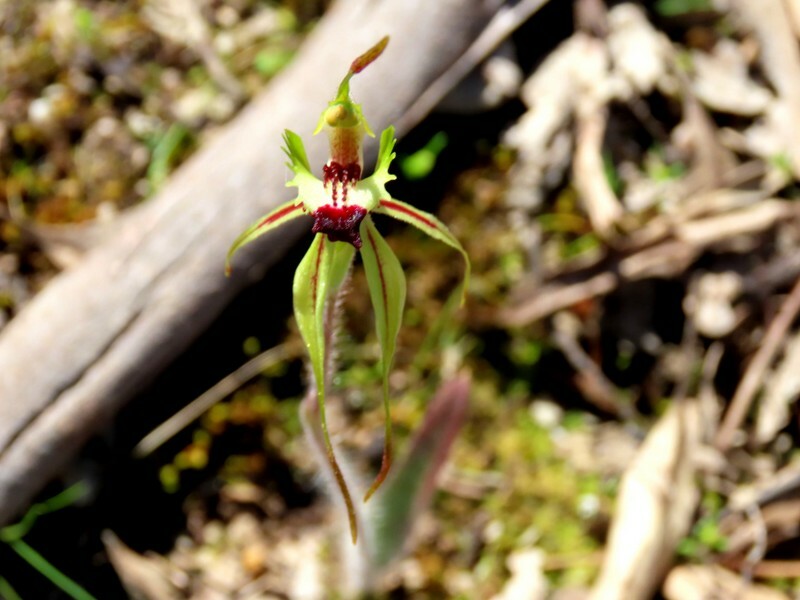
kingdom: Plantae
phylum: Tracheophyta
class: Liliopsida
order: Asparagales
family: Orchidaceae
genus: Caladenia
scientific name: Caladenia parva
